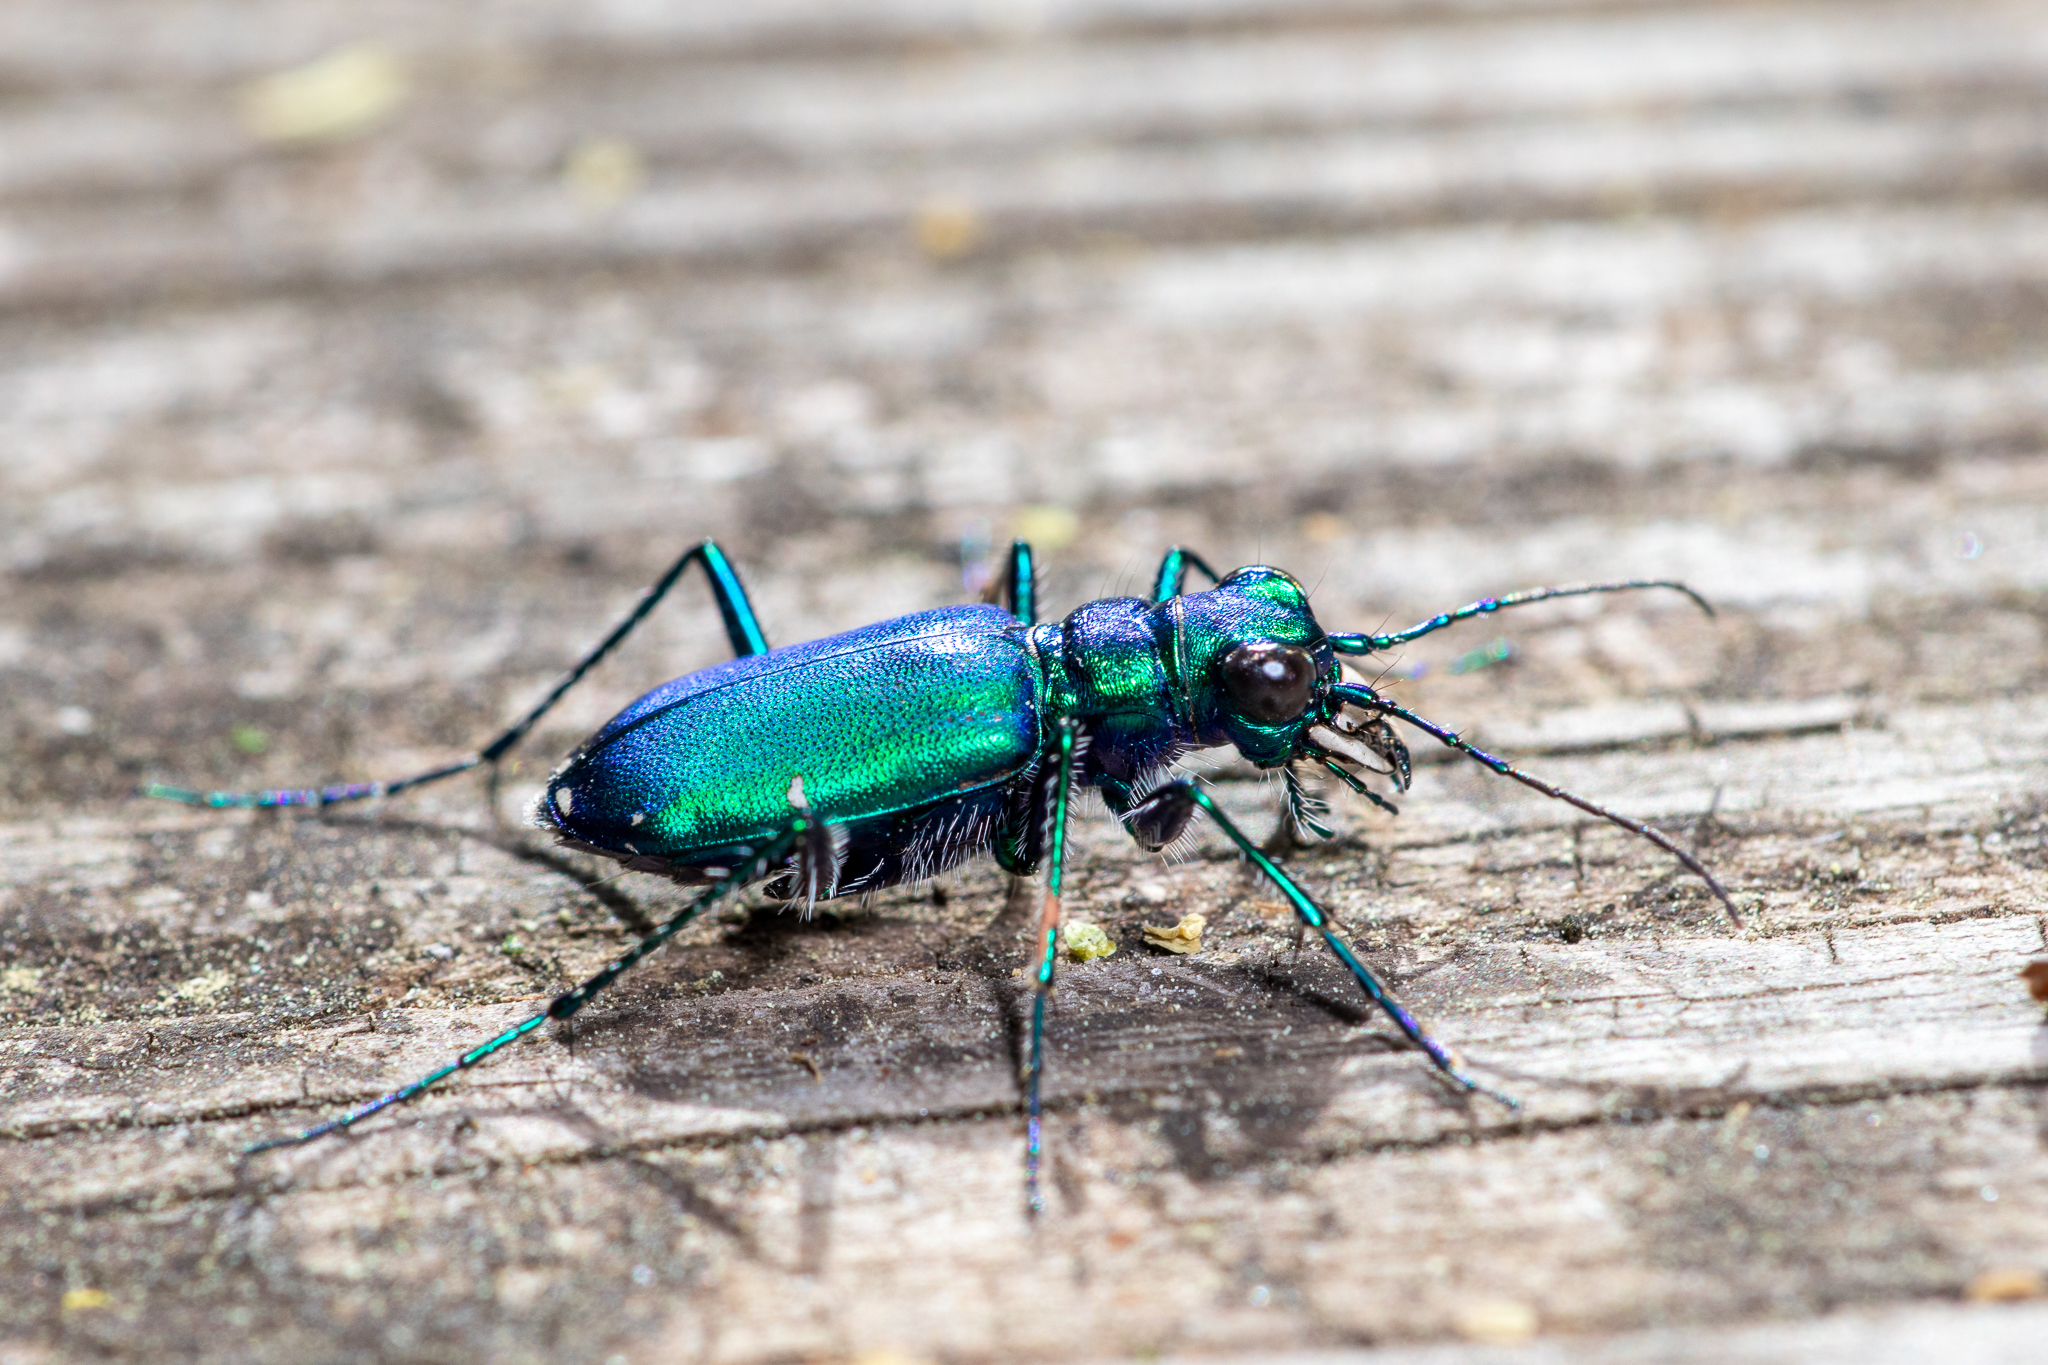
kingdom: Animalia
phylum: Arthropoda
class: Insecta
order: Coleoptera
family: Carabidae
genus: Cicindela
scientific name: Cicindela sexguttata
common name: Six-spotted tiger beetle
